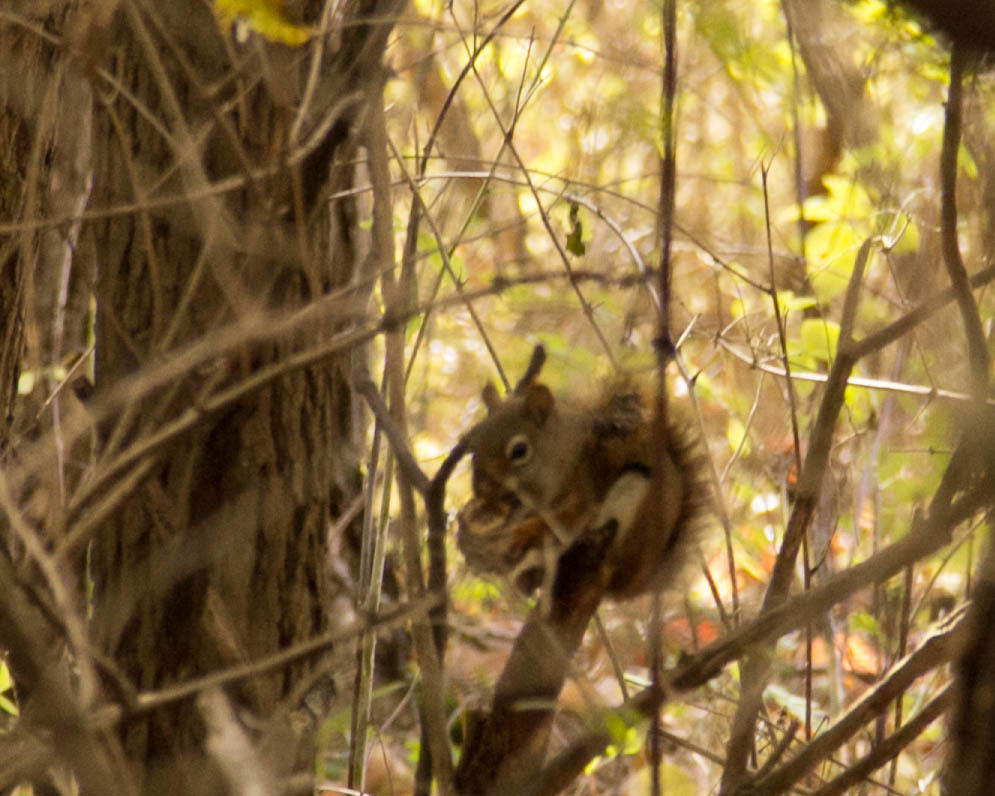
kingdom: Animalia
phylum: Chordata
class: Mammalia
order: Rodentia
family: Sciuridae
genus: Tamiasciurus
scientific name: Tamiasciurus hudsonicus
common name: Red squirrel
